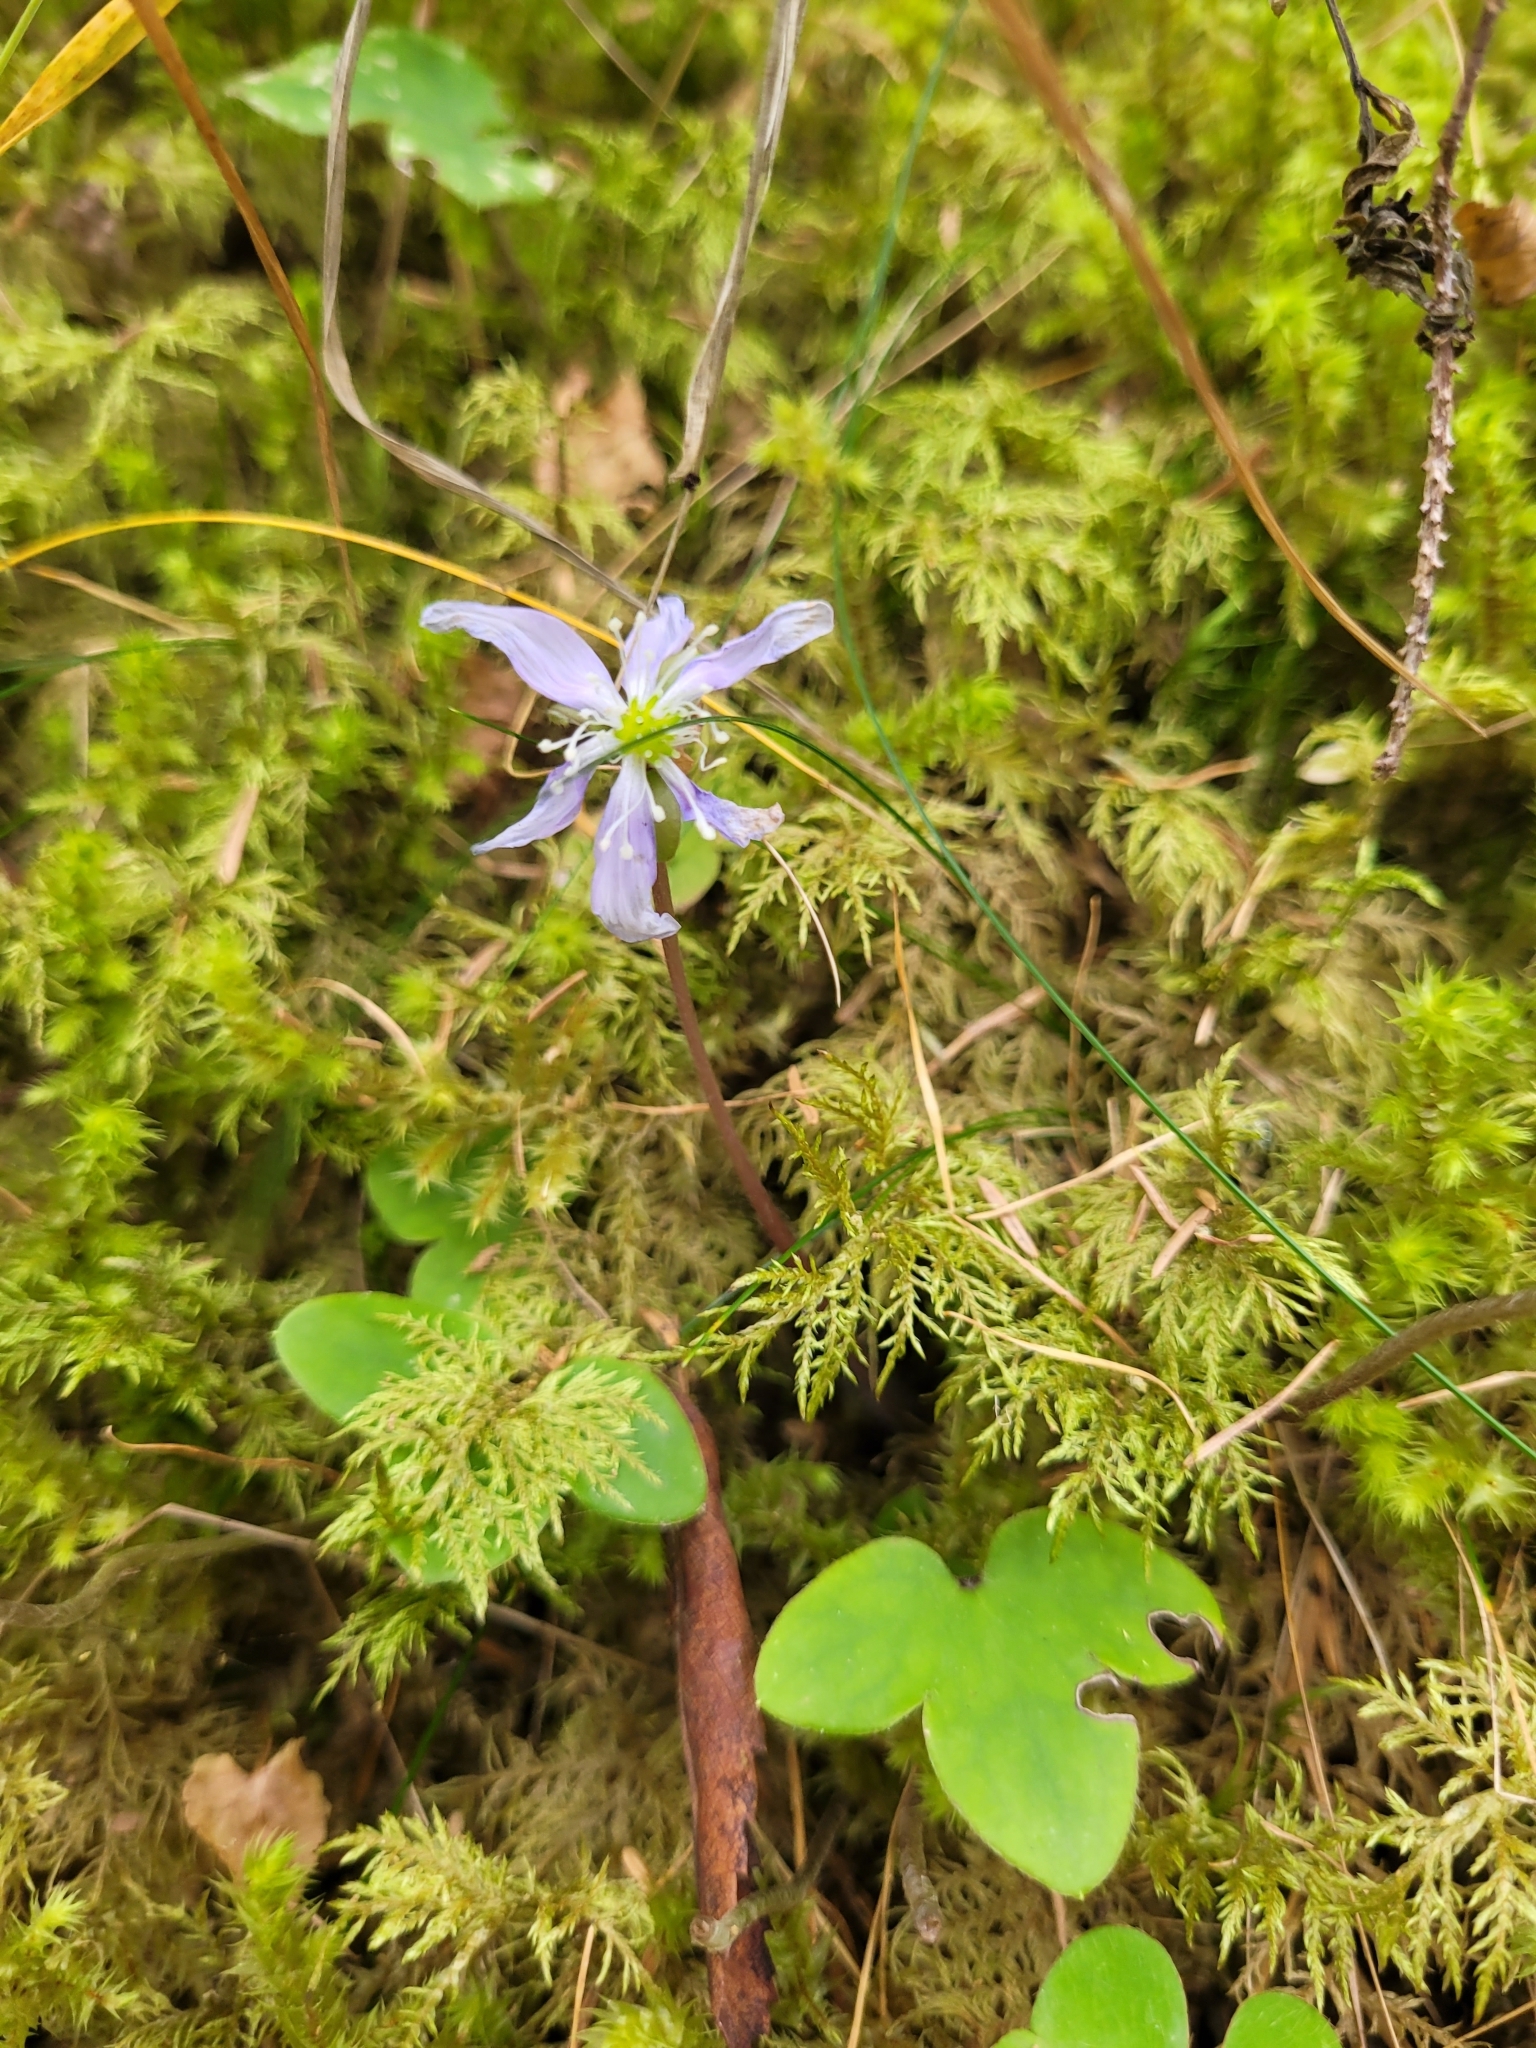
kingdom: Plantae
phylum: Tracheophyta
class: Magnoliopsida
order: Ranunculales
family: Ranunculaceae
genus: Hepatica
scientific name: Hepatica nobilis
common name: Liverleaf
